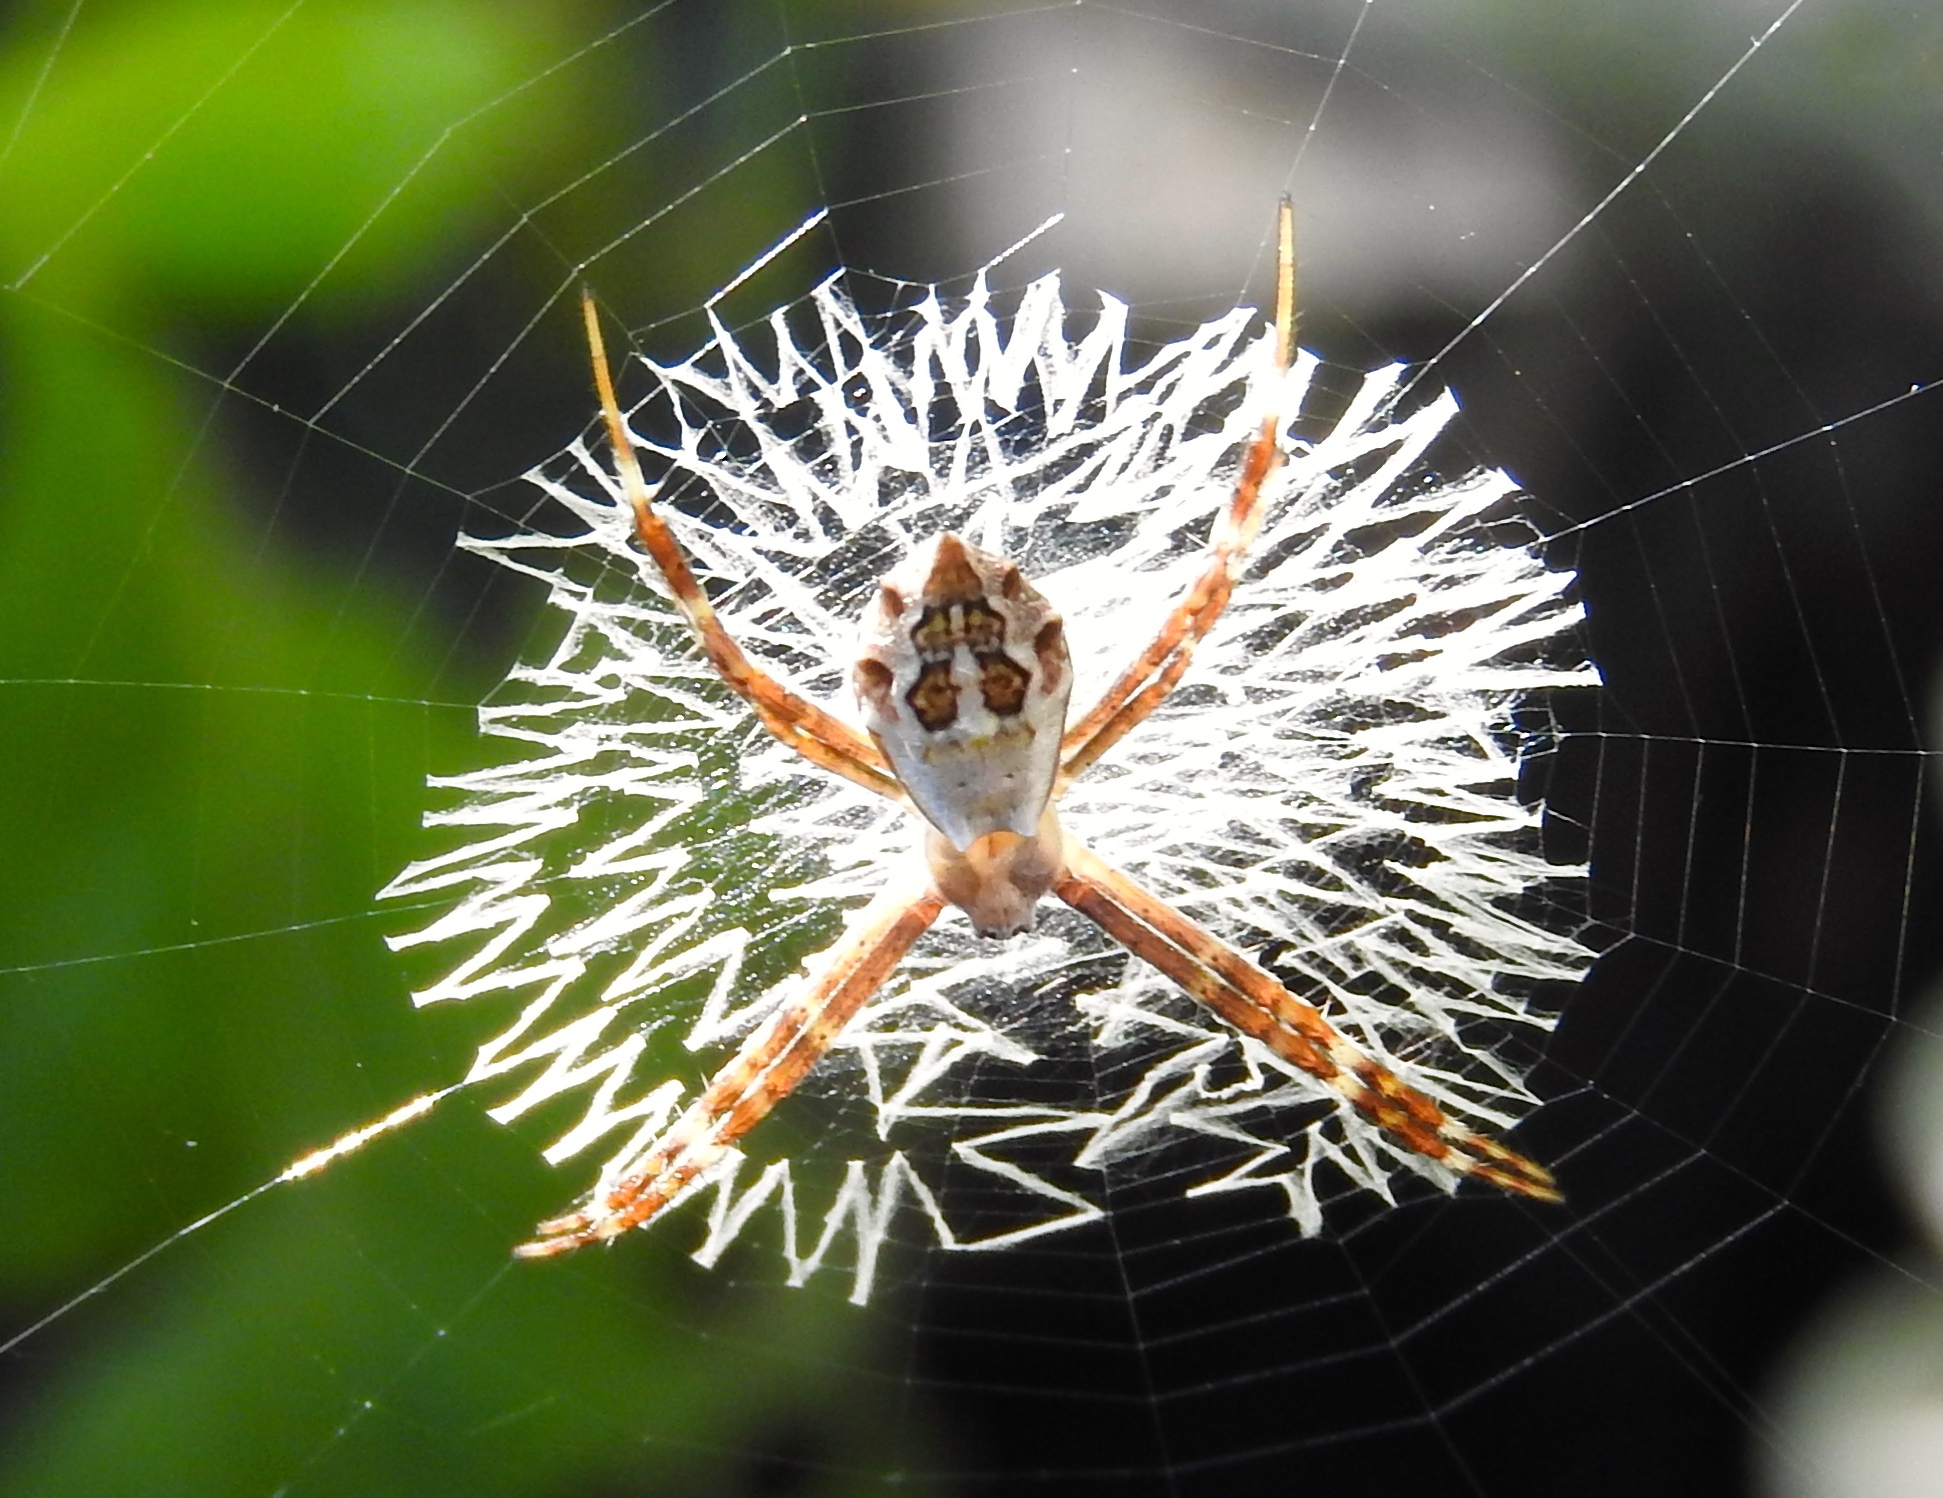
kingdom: Animalia
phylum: Arthropoda
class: Arachnida
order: Araneae
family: Araneidae
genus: Argiope
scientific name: Argiope argentata
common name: Orb weavers
